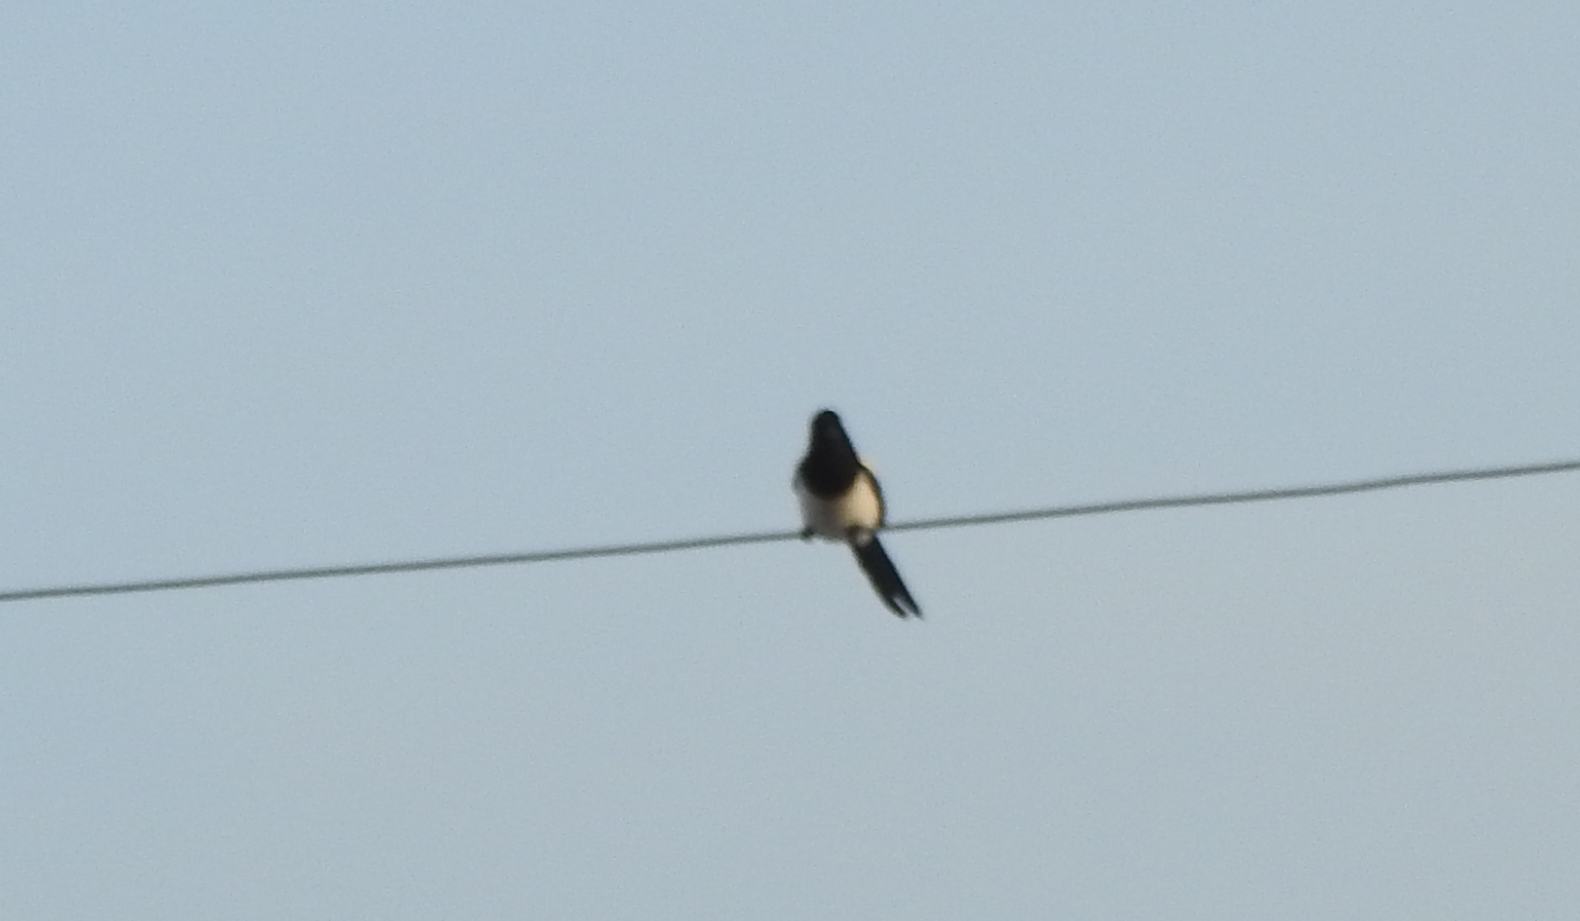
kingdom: Animalia
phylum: Chordata
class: Aves
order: Passeriformes
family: Corvidae
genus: Pica
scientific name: Pica serica
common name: Oriental magpie
